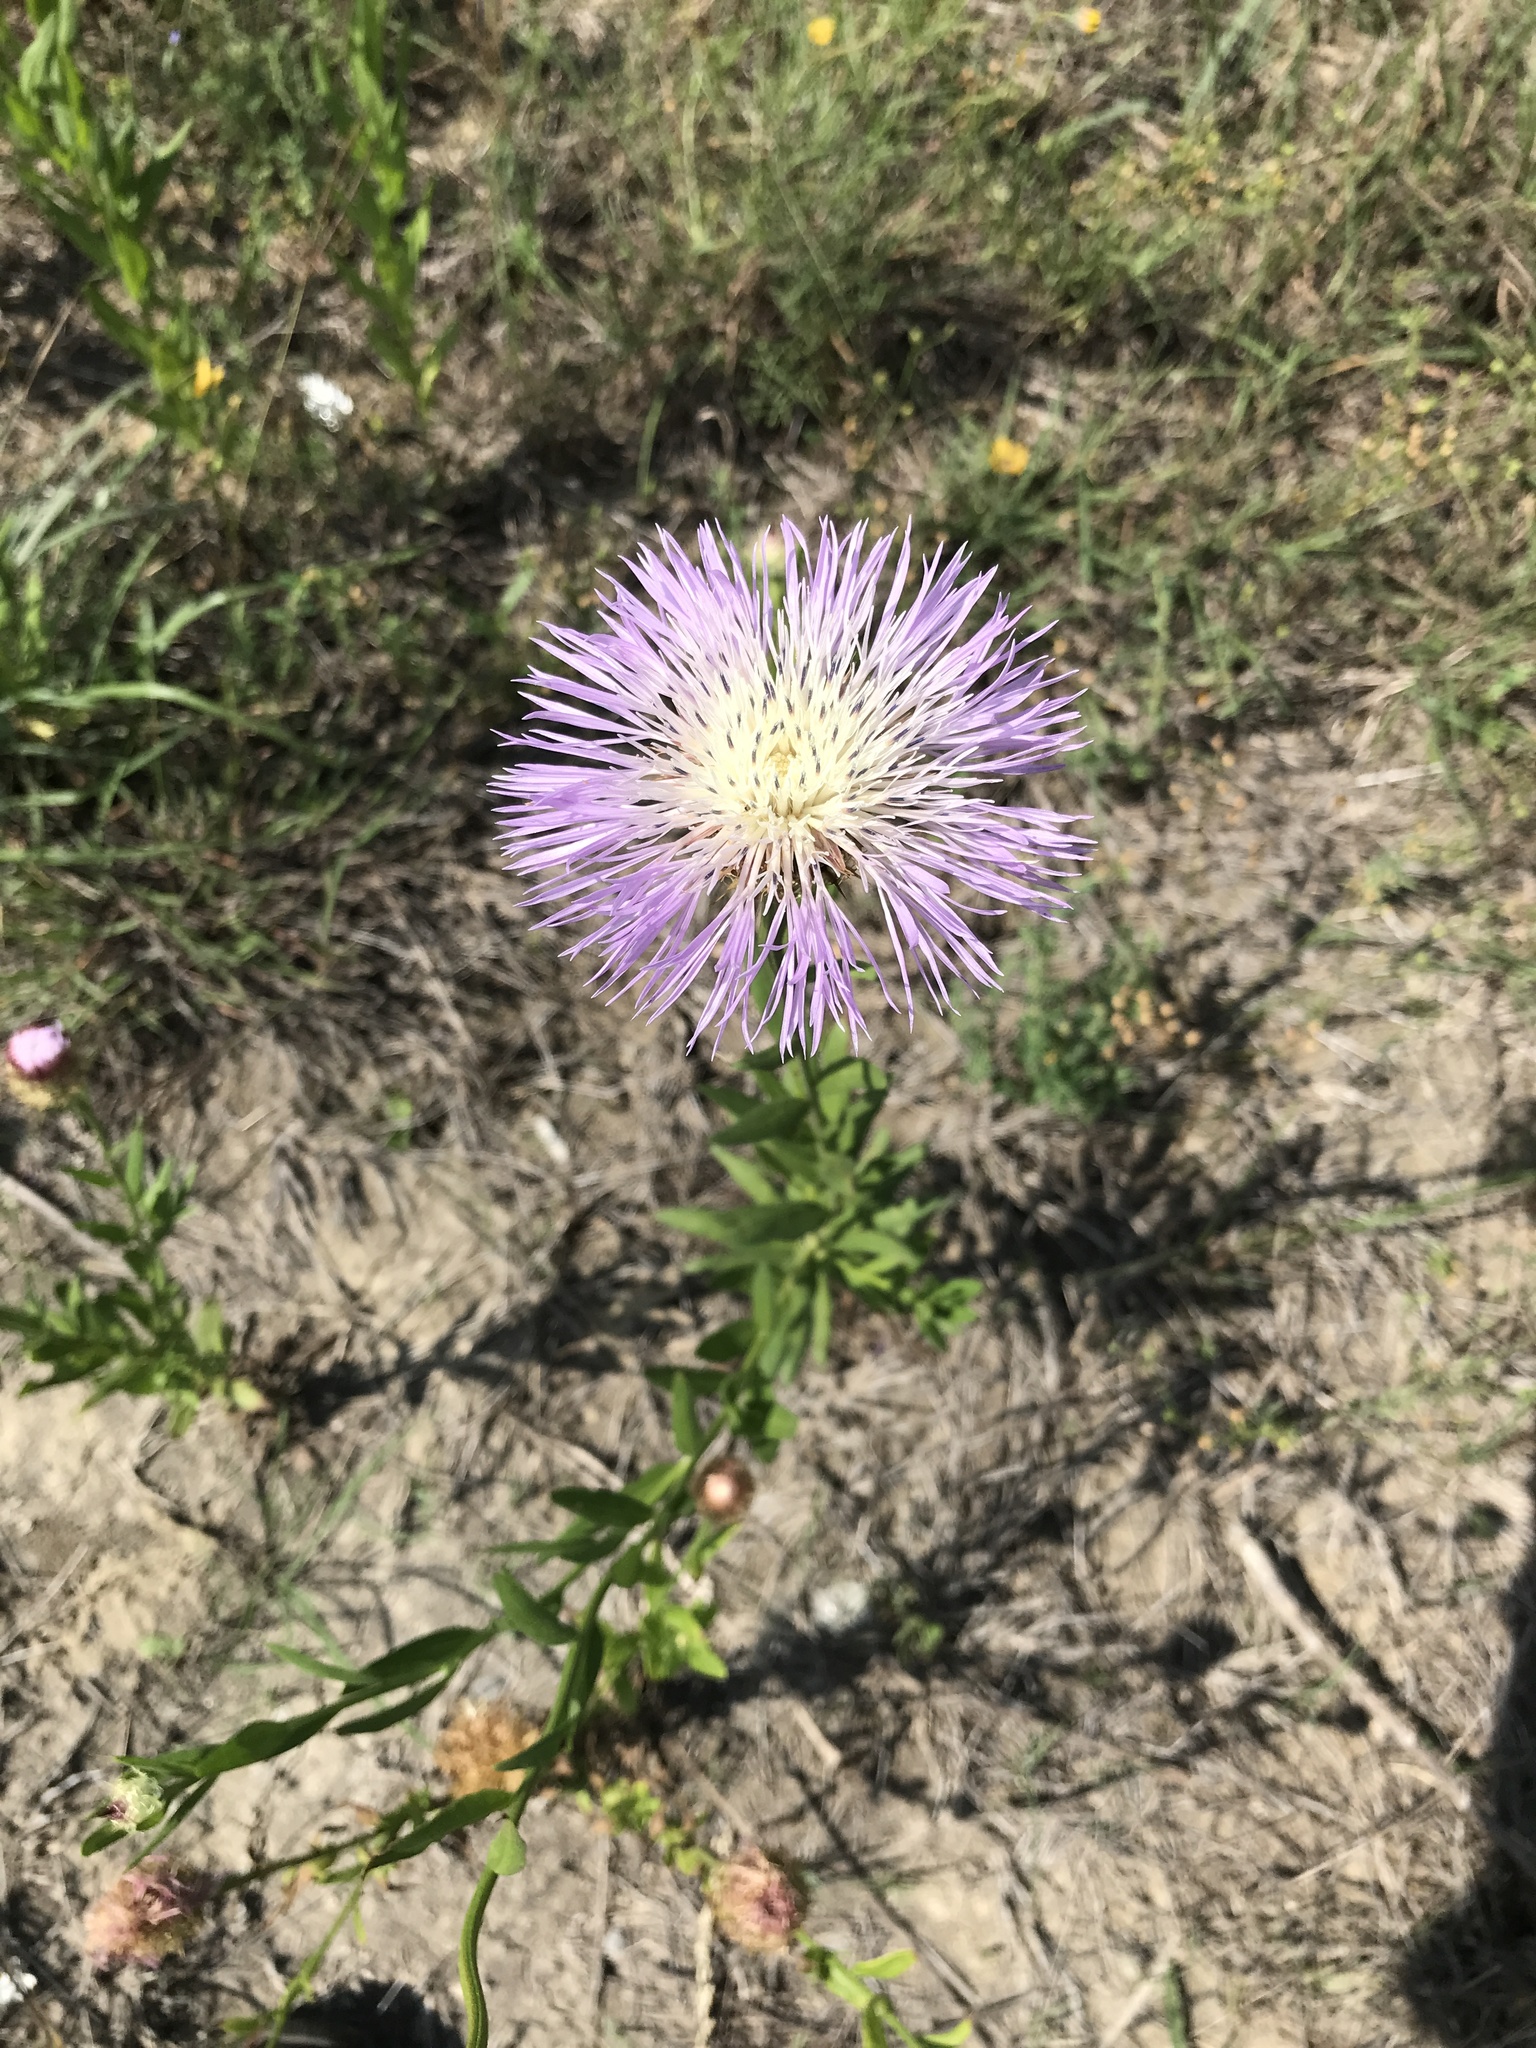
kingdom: Plantae
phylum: Tracheophyta
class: Magnoliopsida
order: Asterales
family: Asteraceae
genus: Plectocephalus
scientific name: Plectocephalus americanus
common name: American basket-flower
